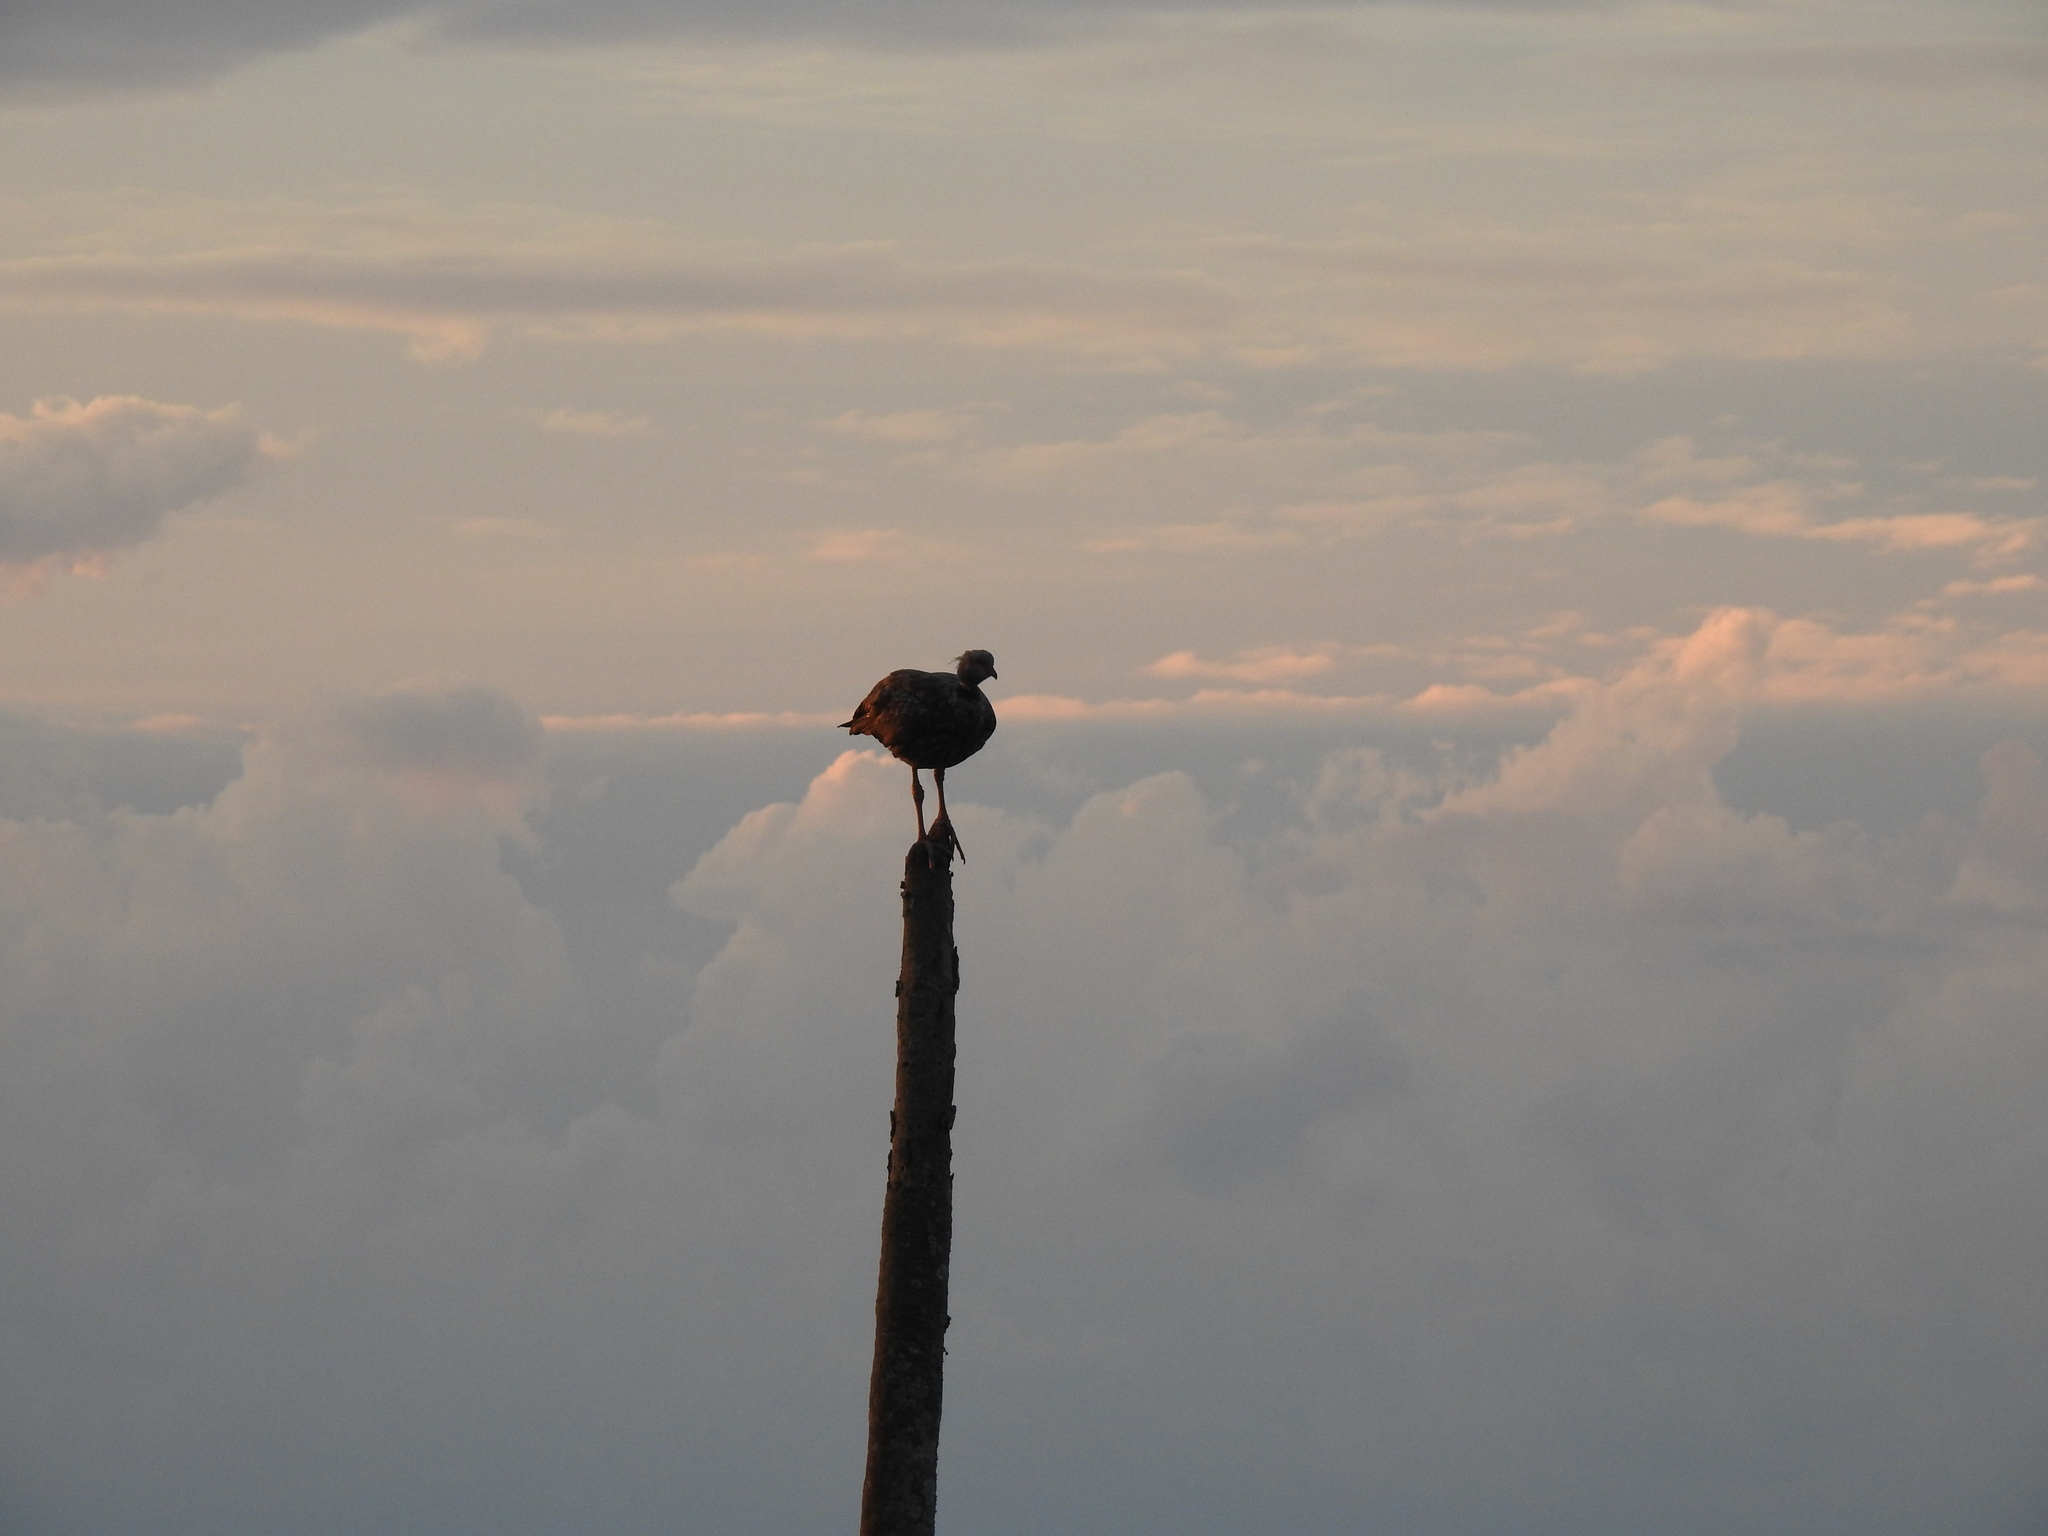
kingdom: Animalia
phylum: Chordata
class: Aves
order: Anseriformes
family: Anhimidae
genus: Chauna
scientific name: Chauna torquata
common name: Southern screamer
